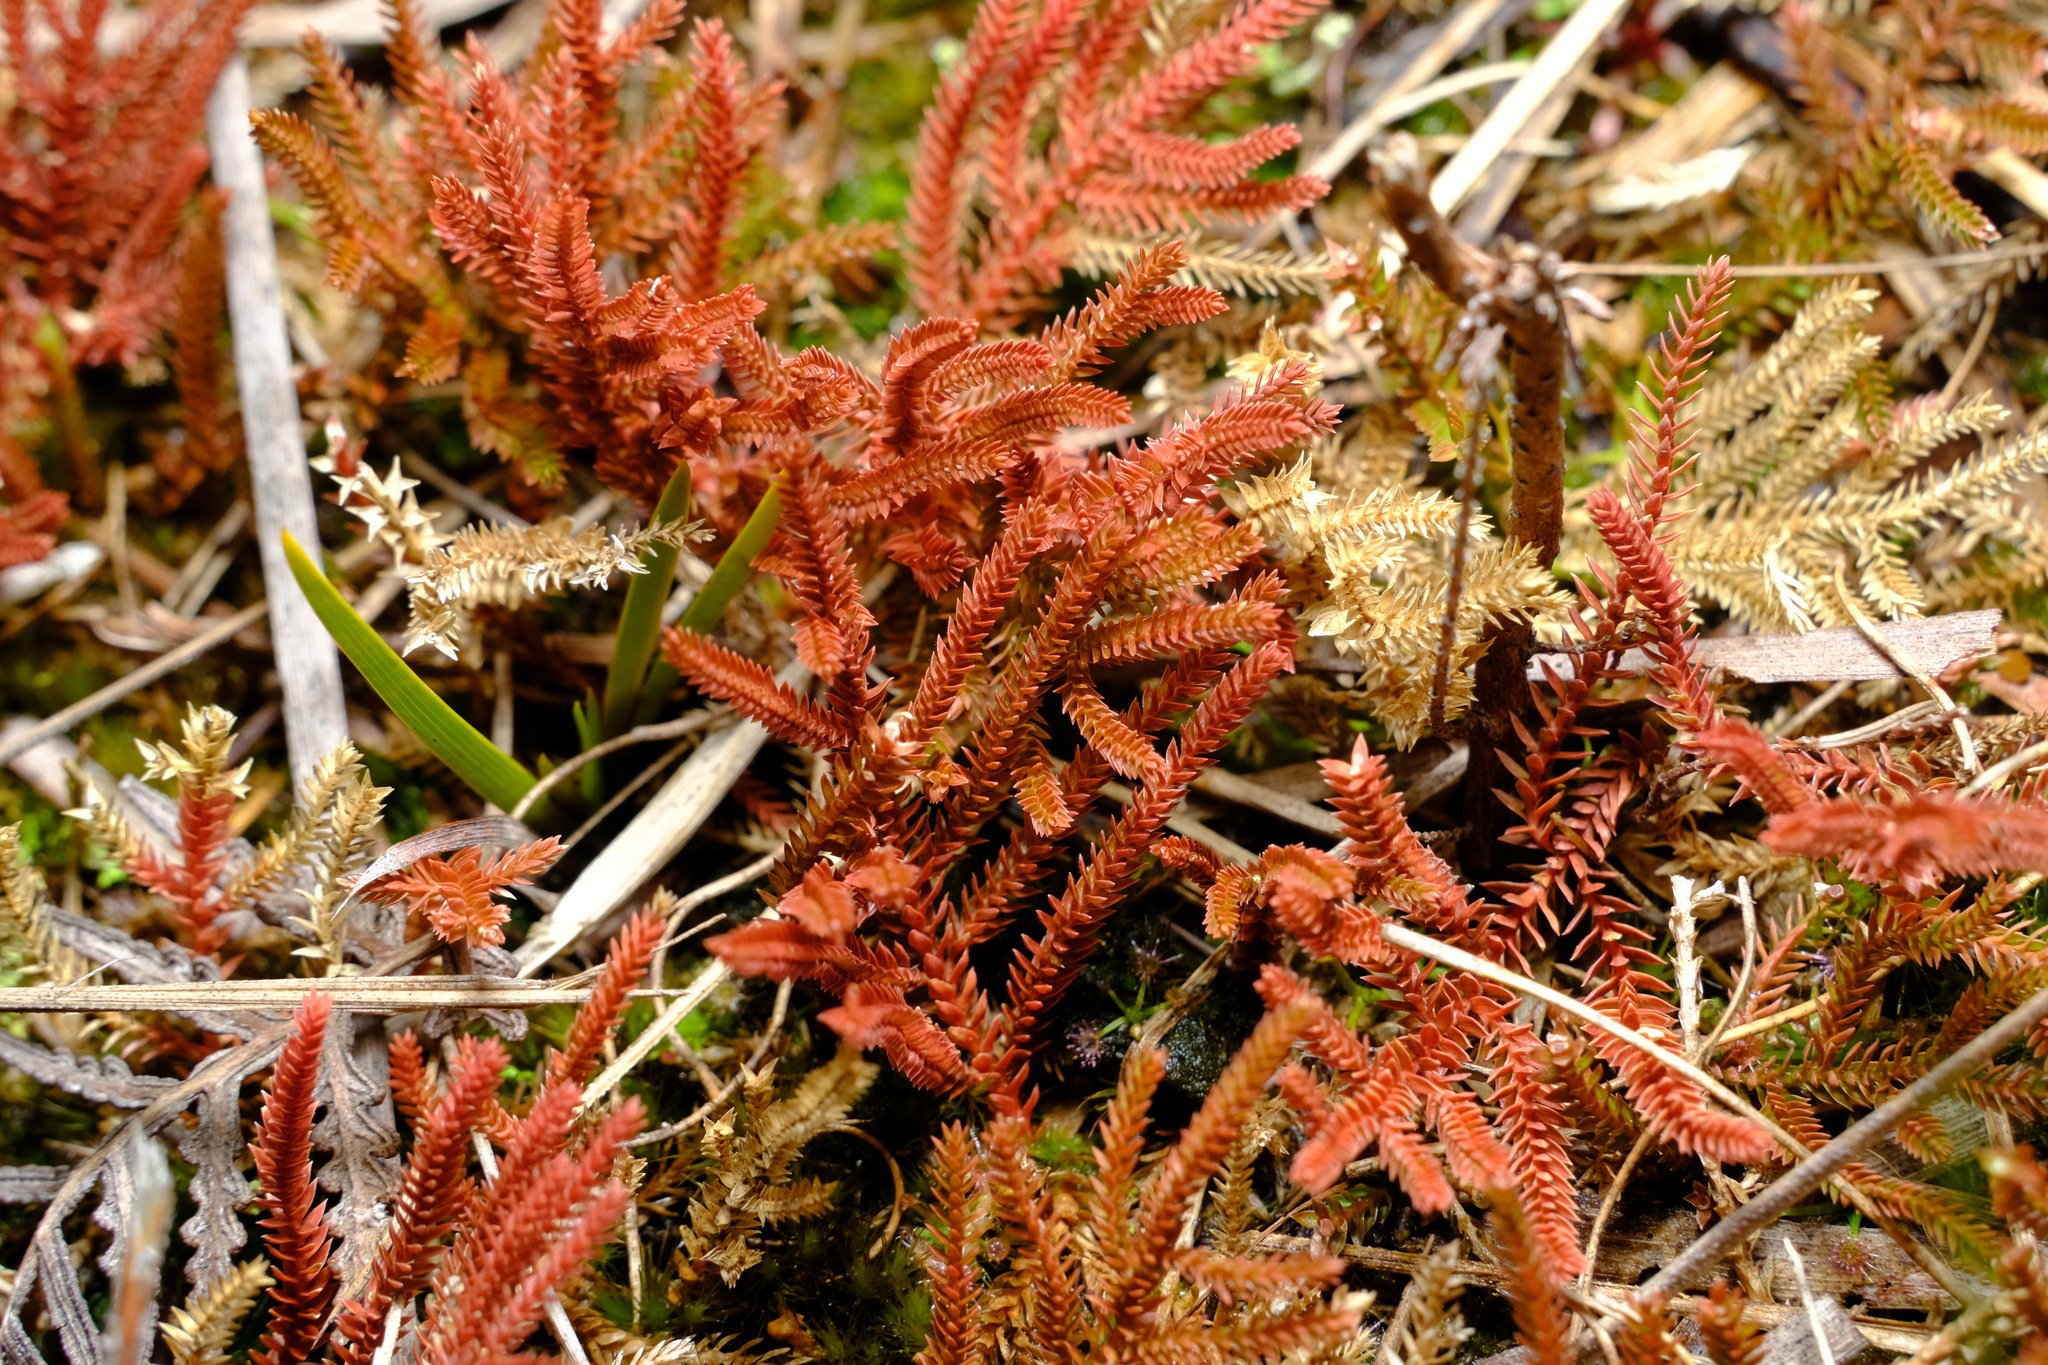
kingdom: Plantae
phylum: Tracheophyta
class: Lycopodiopsida
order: Selaginellales
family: Selaginellaceae
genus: Selaginella
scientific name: Selaginella uliginosa
